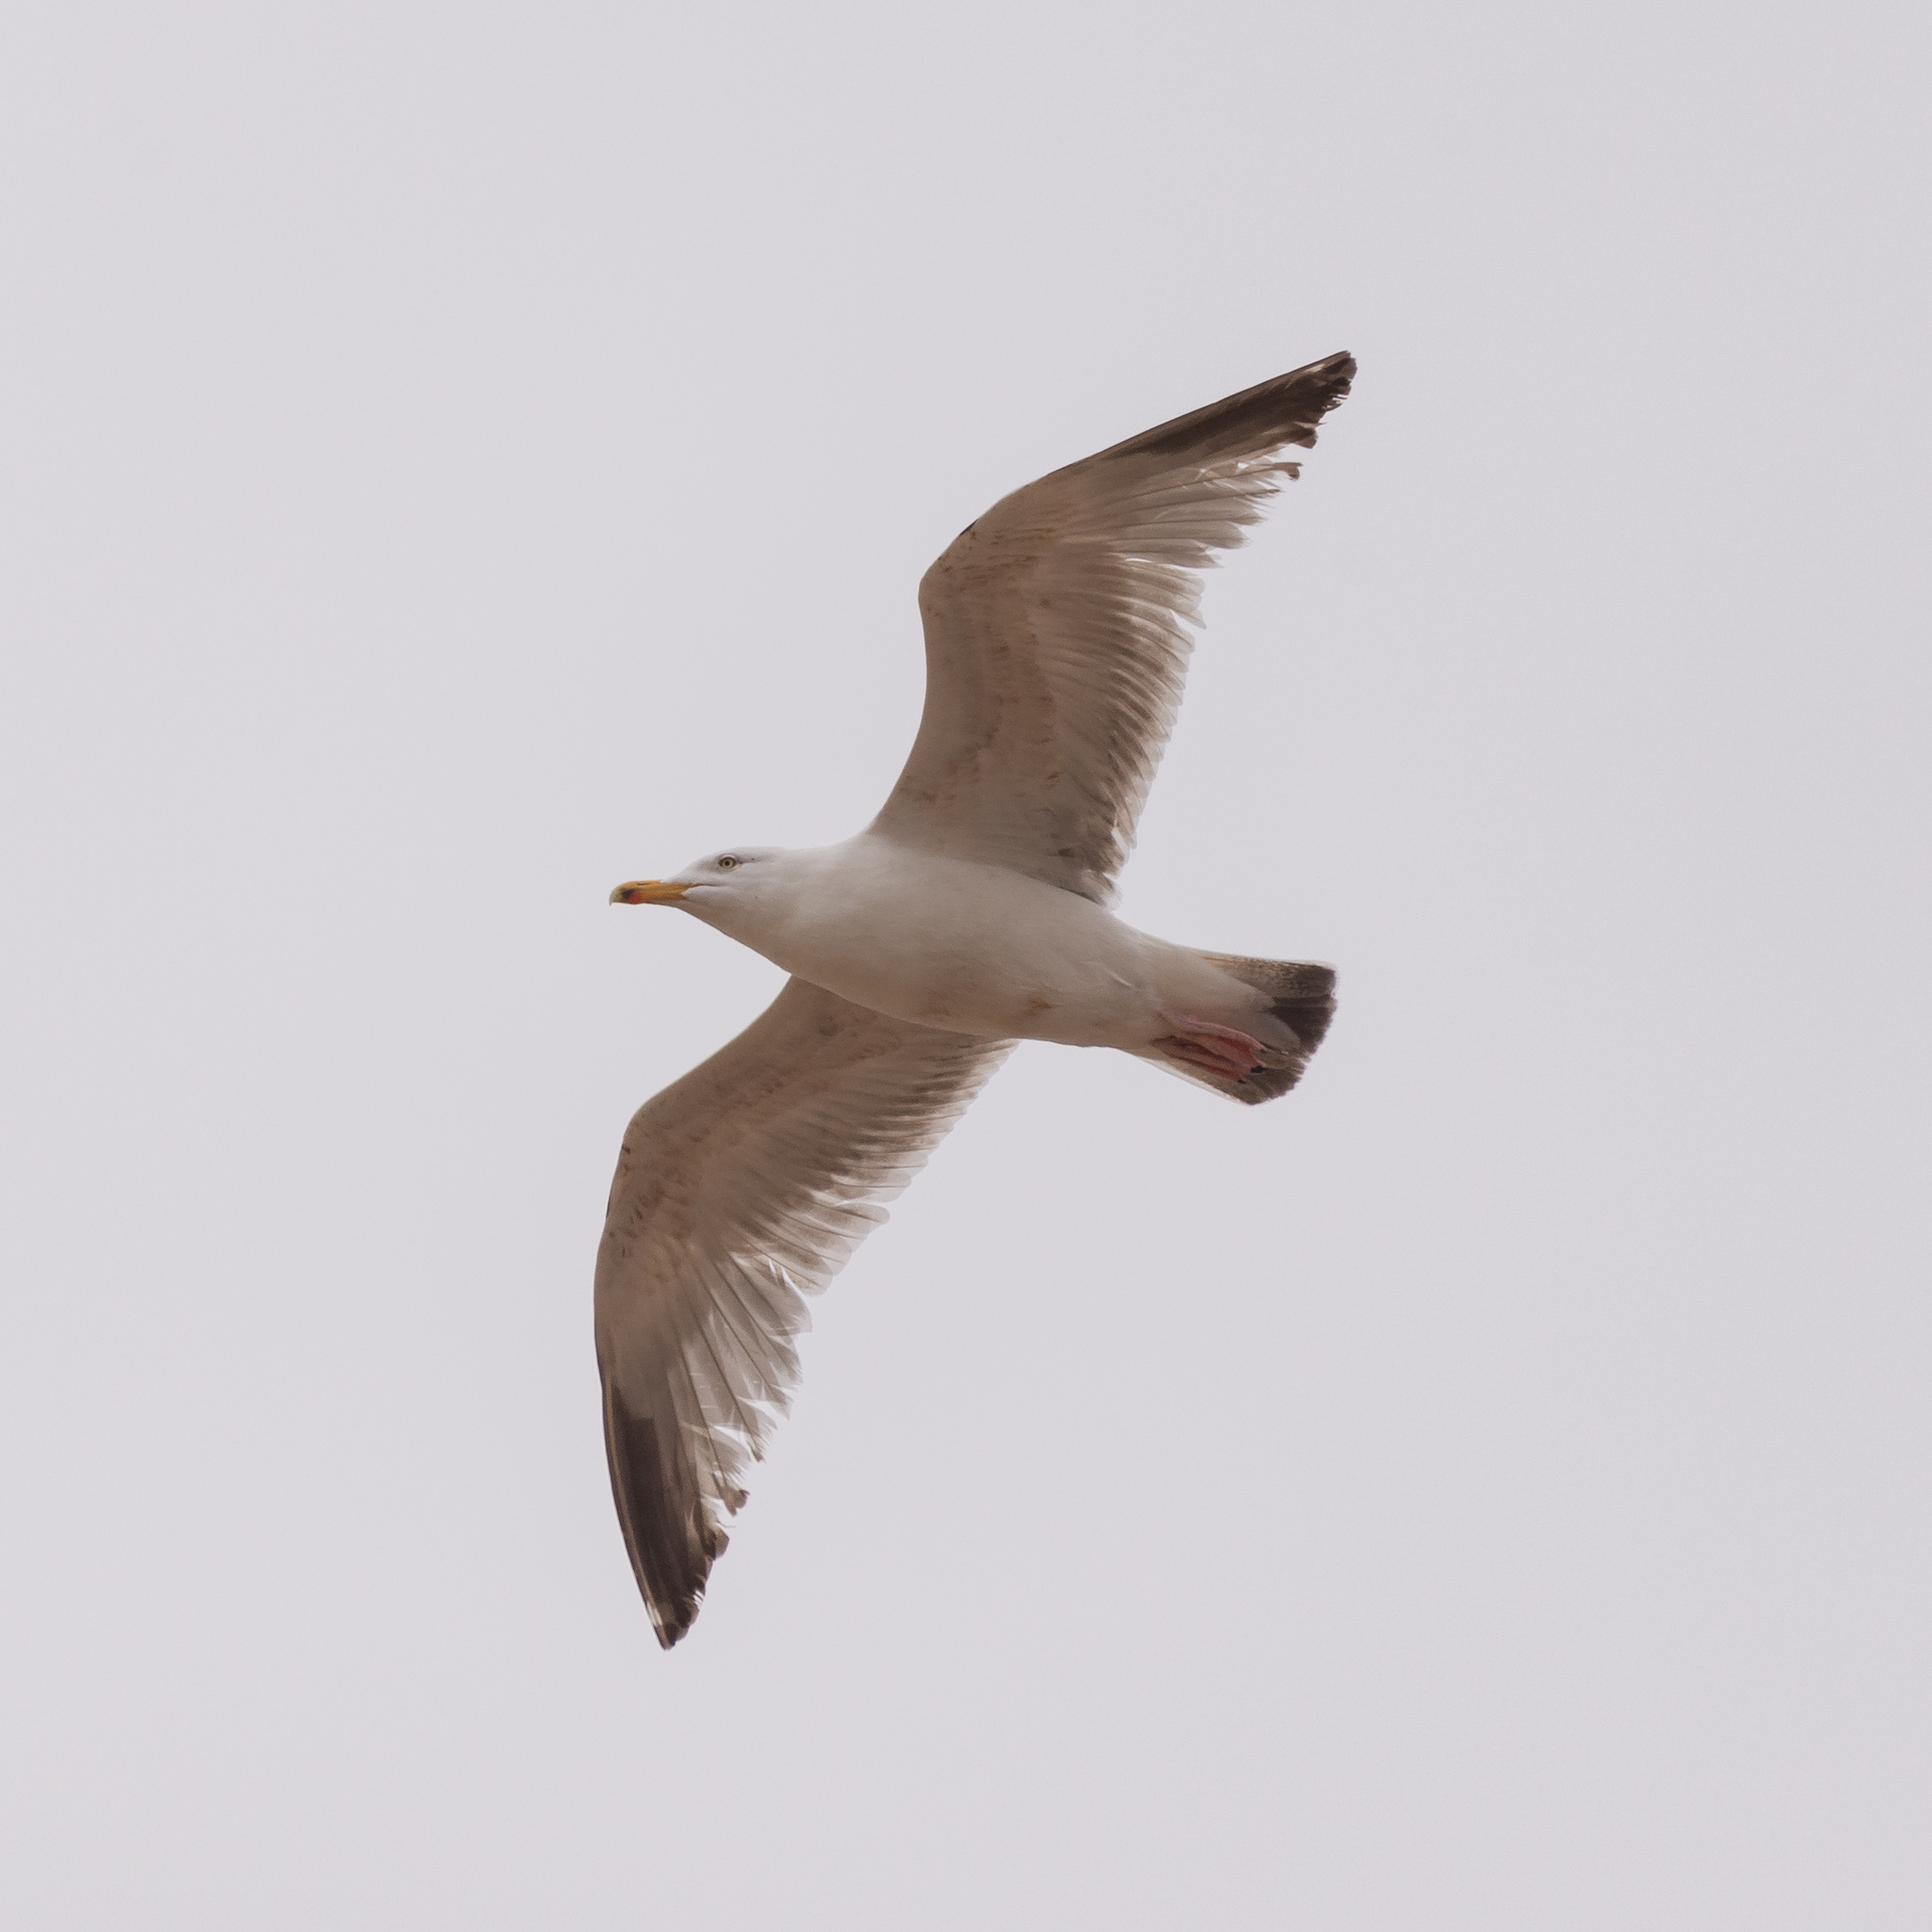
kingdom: Animalia
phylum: Chordata
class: Aves
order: Charadriiformes
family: Laridae
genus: Larus
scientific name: Larus argentatus
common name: Herring gull
